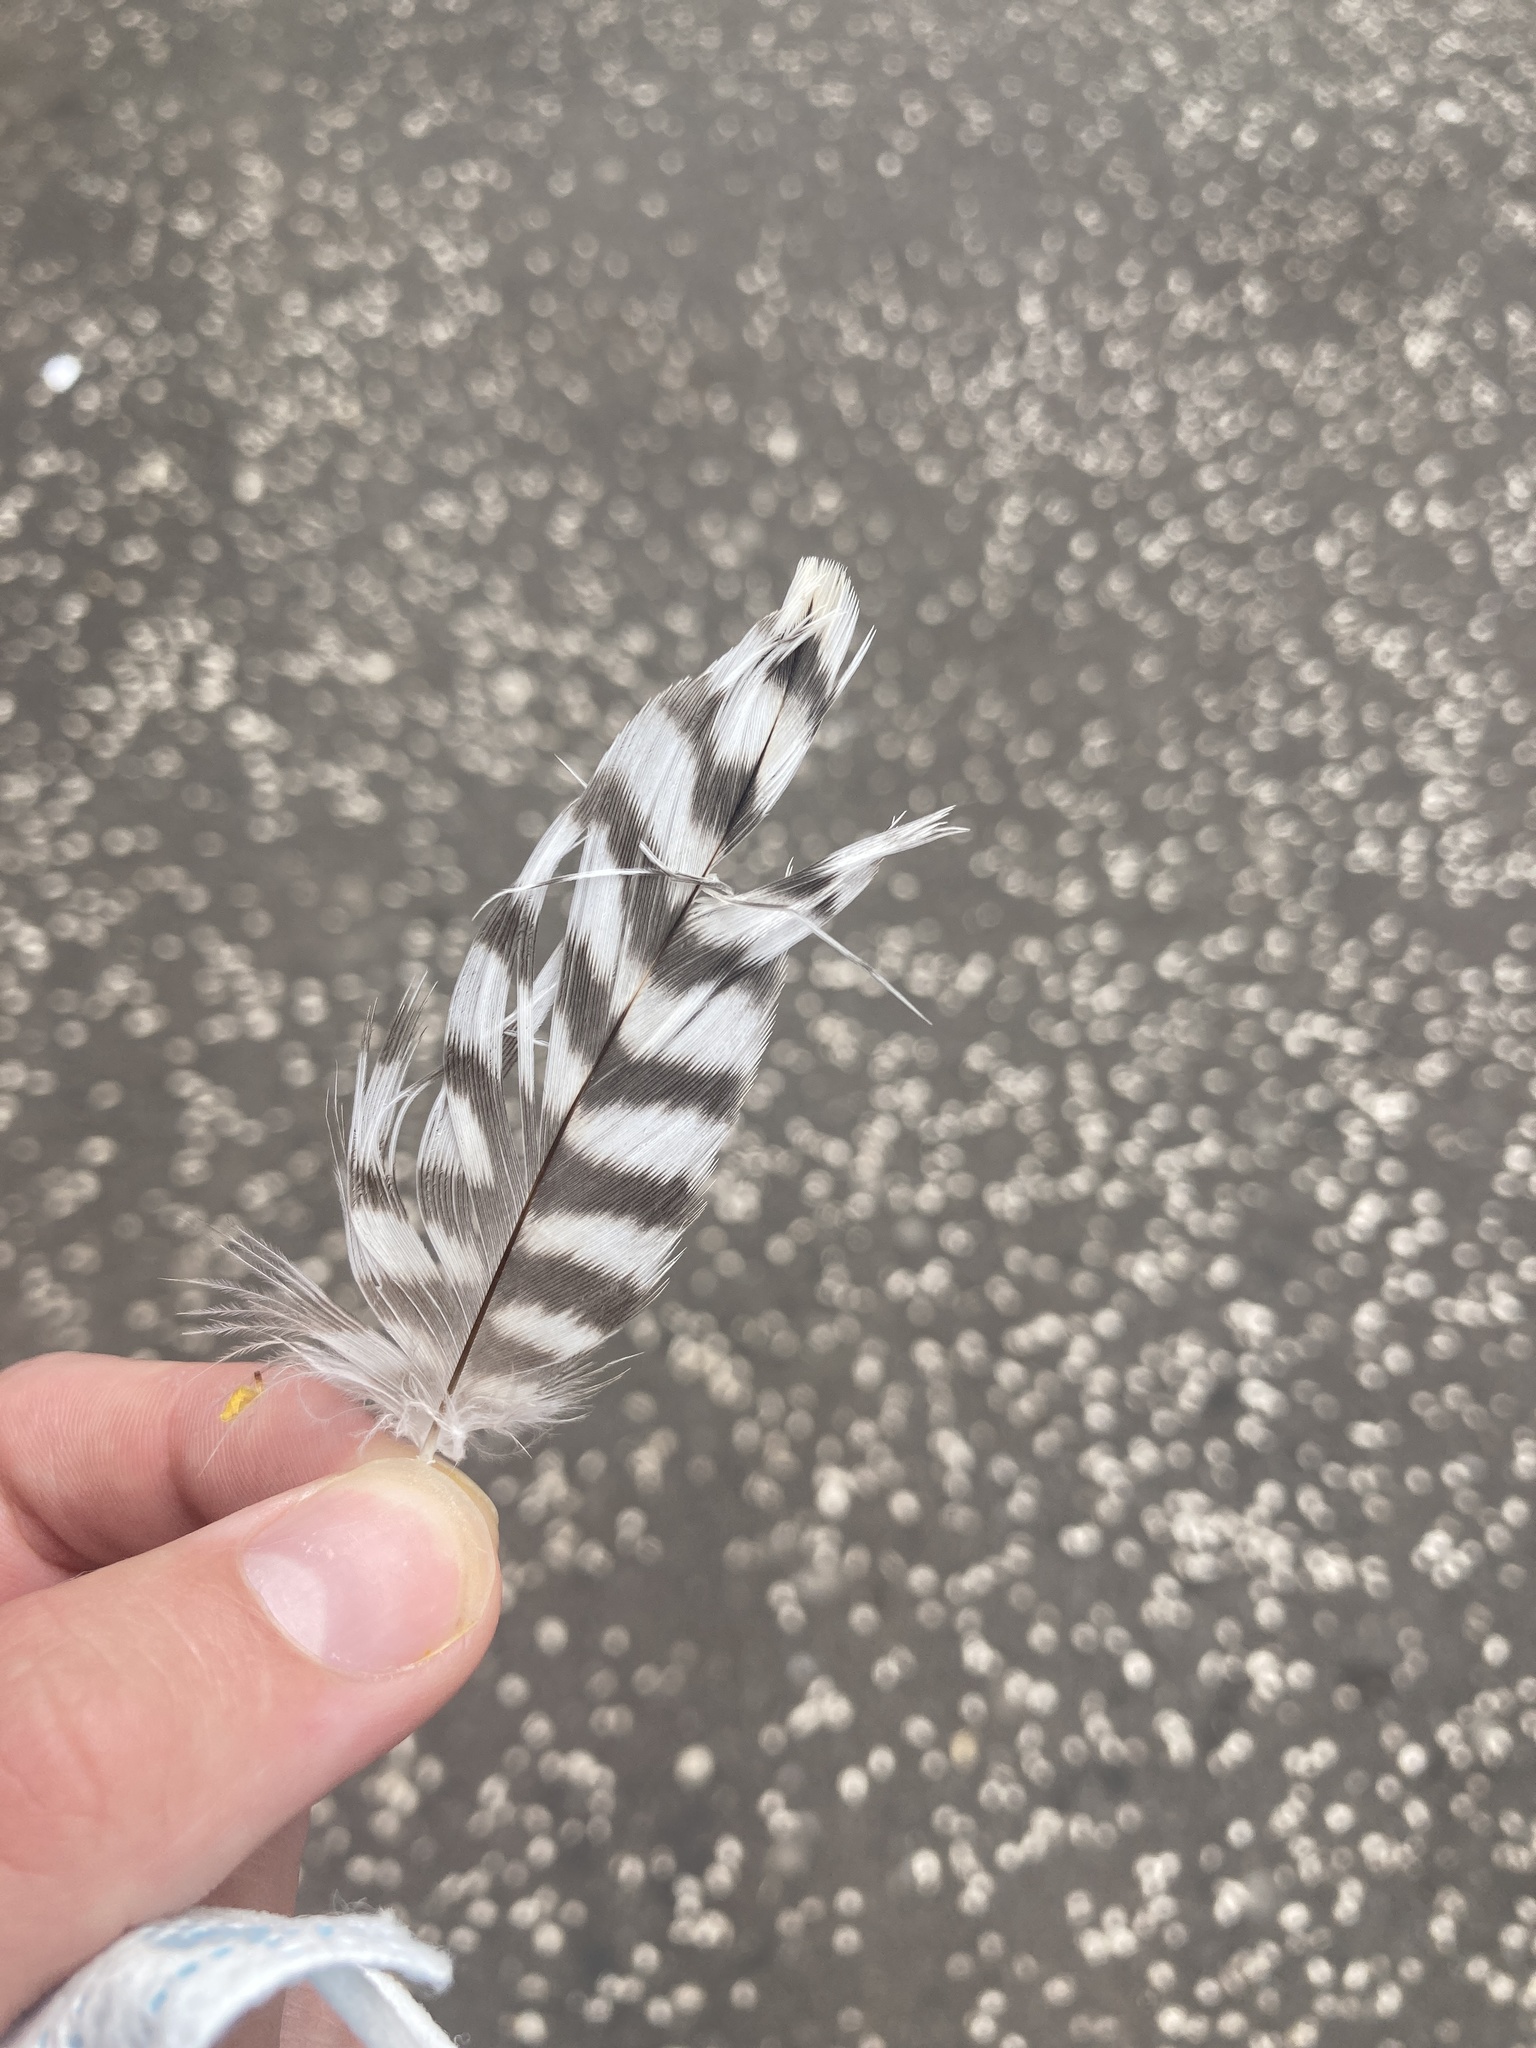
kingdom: Animalia
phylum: Chordata
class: Aves
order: Falconiformes
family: Falconidae
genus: Falco
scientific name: Falco peregrinus
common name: Peregrine falcon
